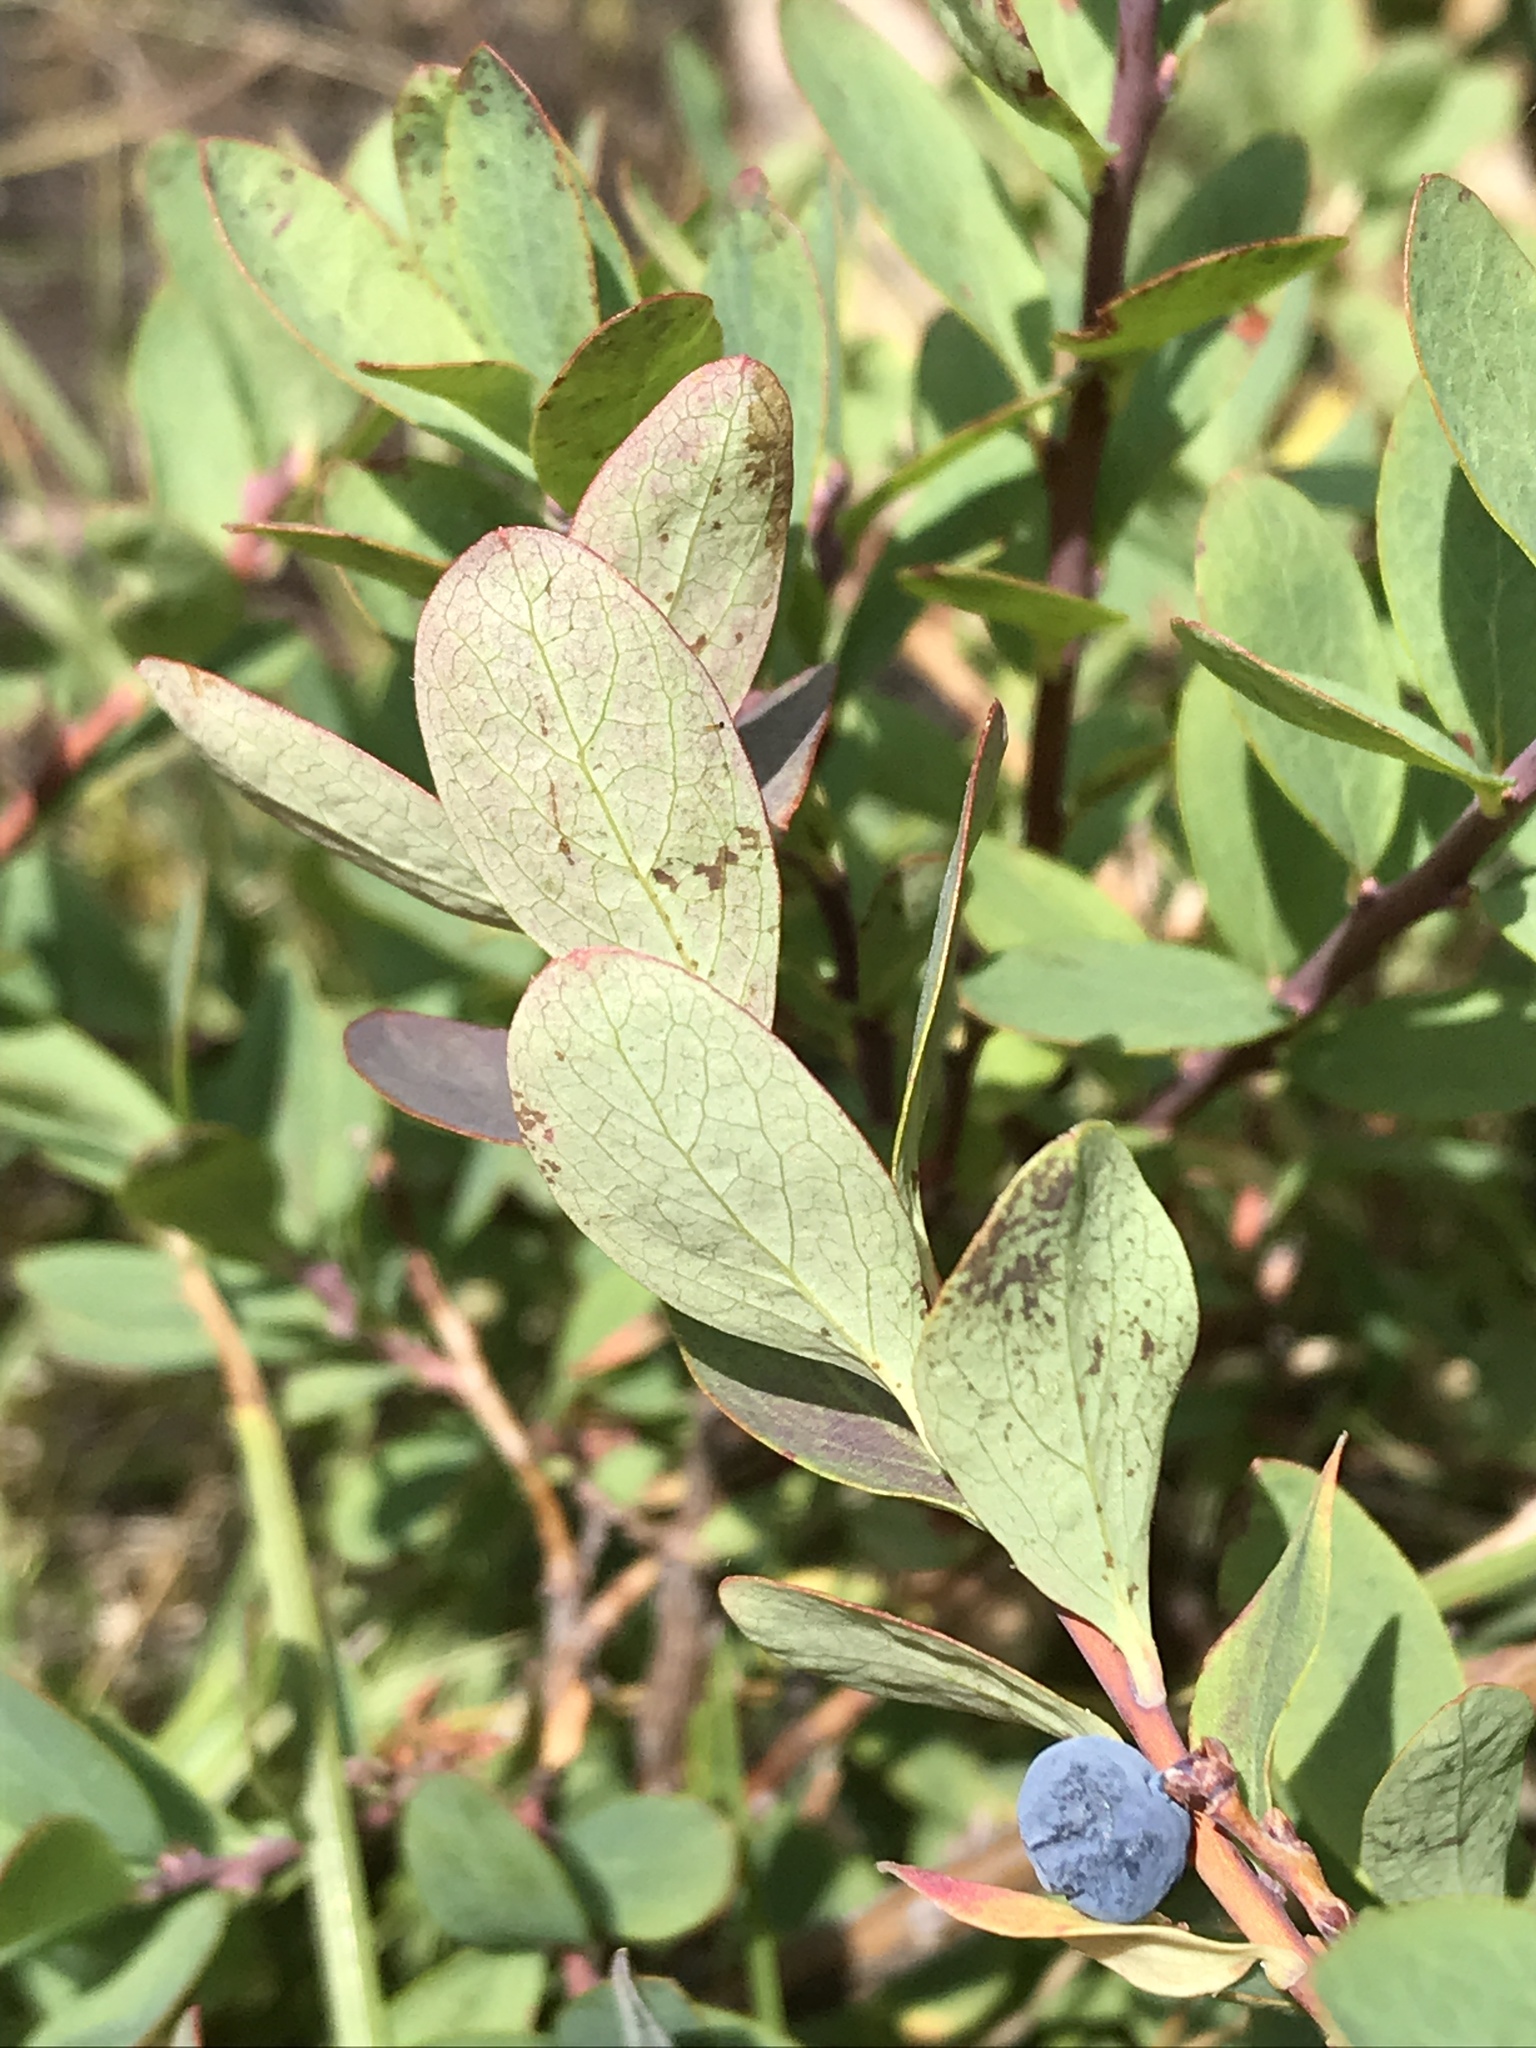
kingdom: Plantae
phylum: Tracheophyta
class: Magnoliopsida
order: Ericales
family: Ericaceae
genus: Vaccinium
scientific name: Vaccinium uliginosum
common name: Bog bilberry
